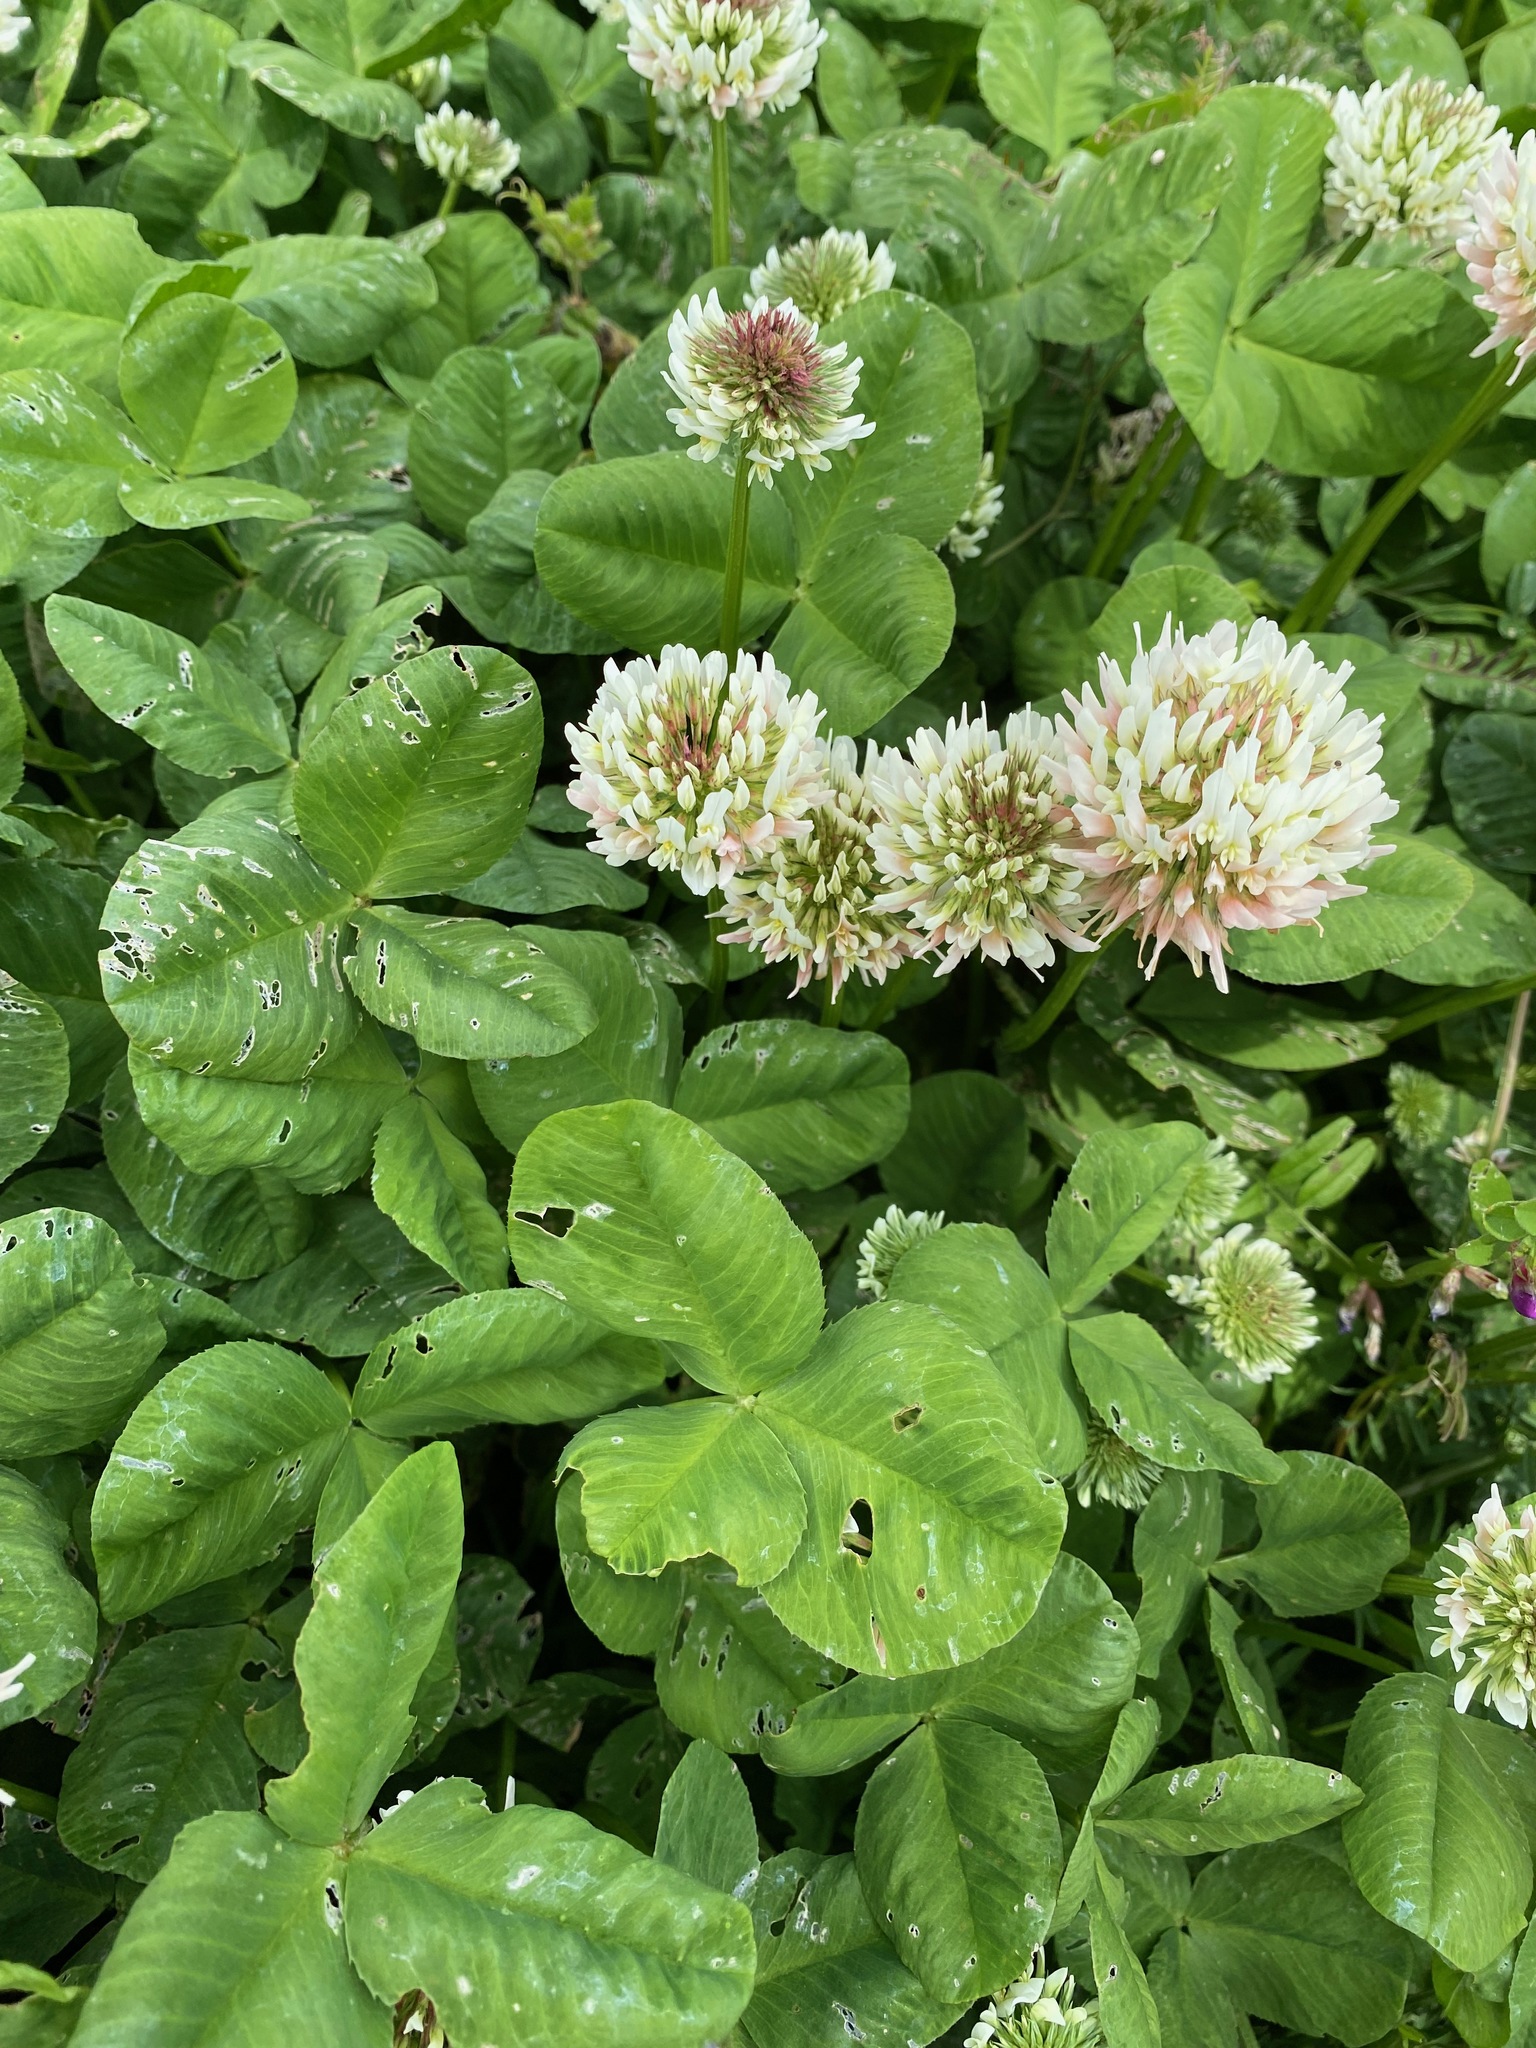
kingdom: Plantae
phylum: Tracheophyta
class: Magnoliopsida
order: Fabales
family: Fabaceae
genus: Trifolium
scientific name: Trifolium repens
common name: White clover
